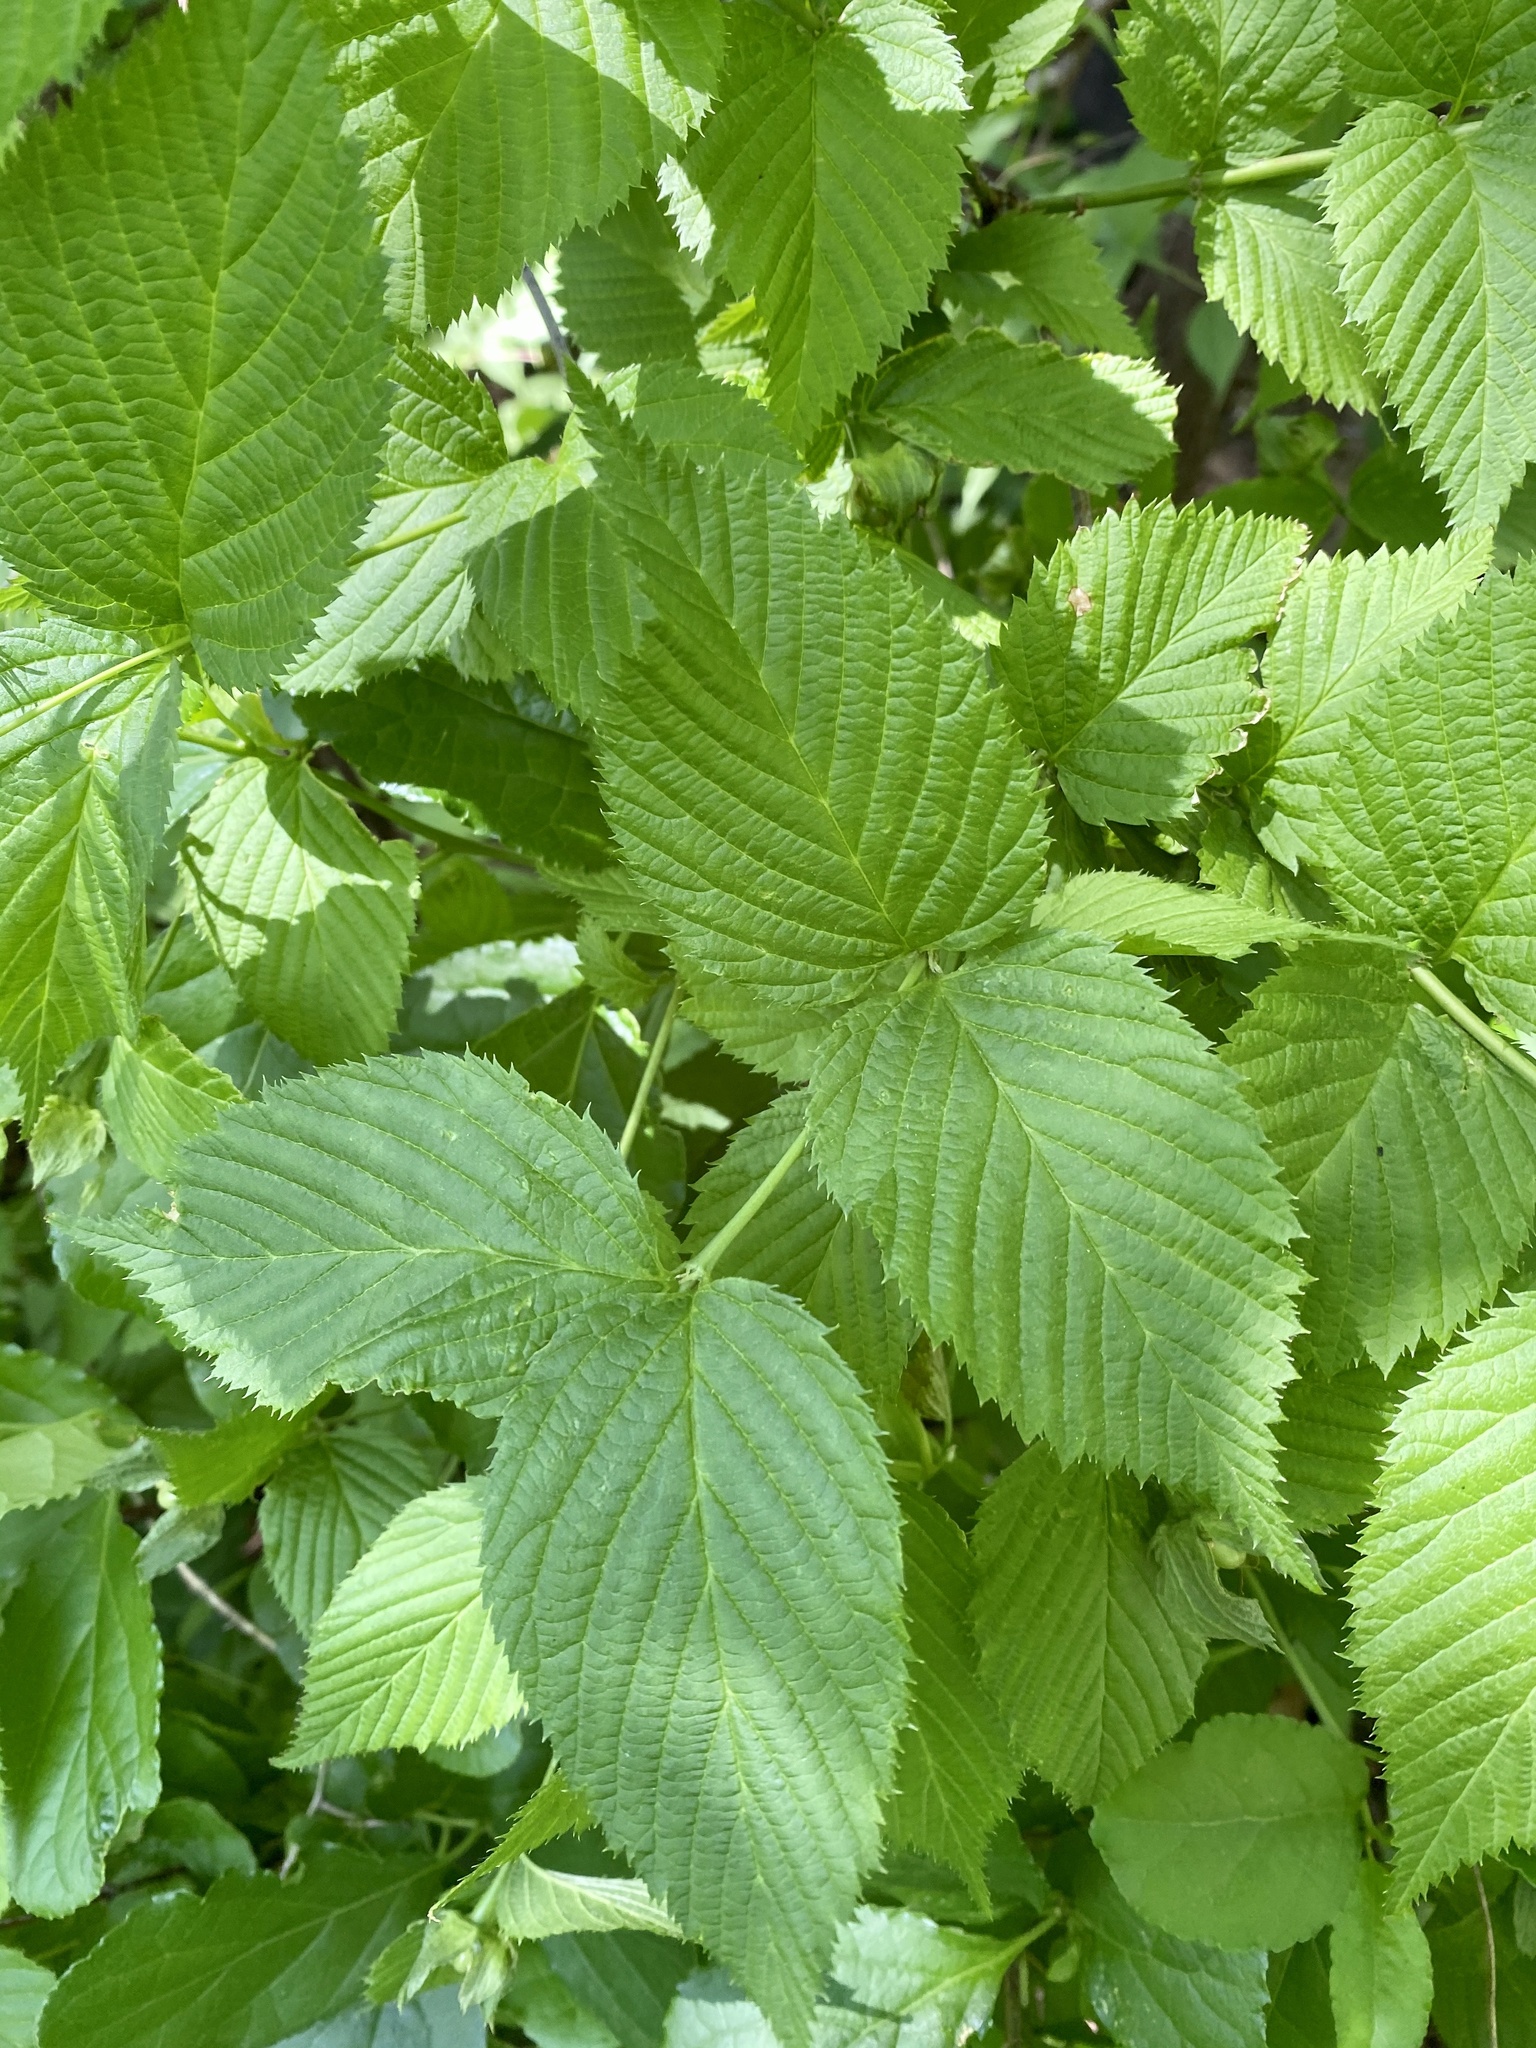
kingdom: Plantae
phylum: Tracheophyta
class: Magnoliopsida
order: Rosales
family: Rosaceae
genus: Rhodotypos
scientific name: Rhodotypos scandens
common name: Jetbead
